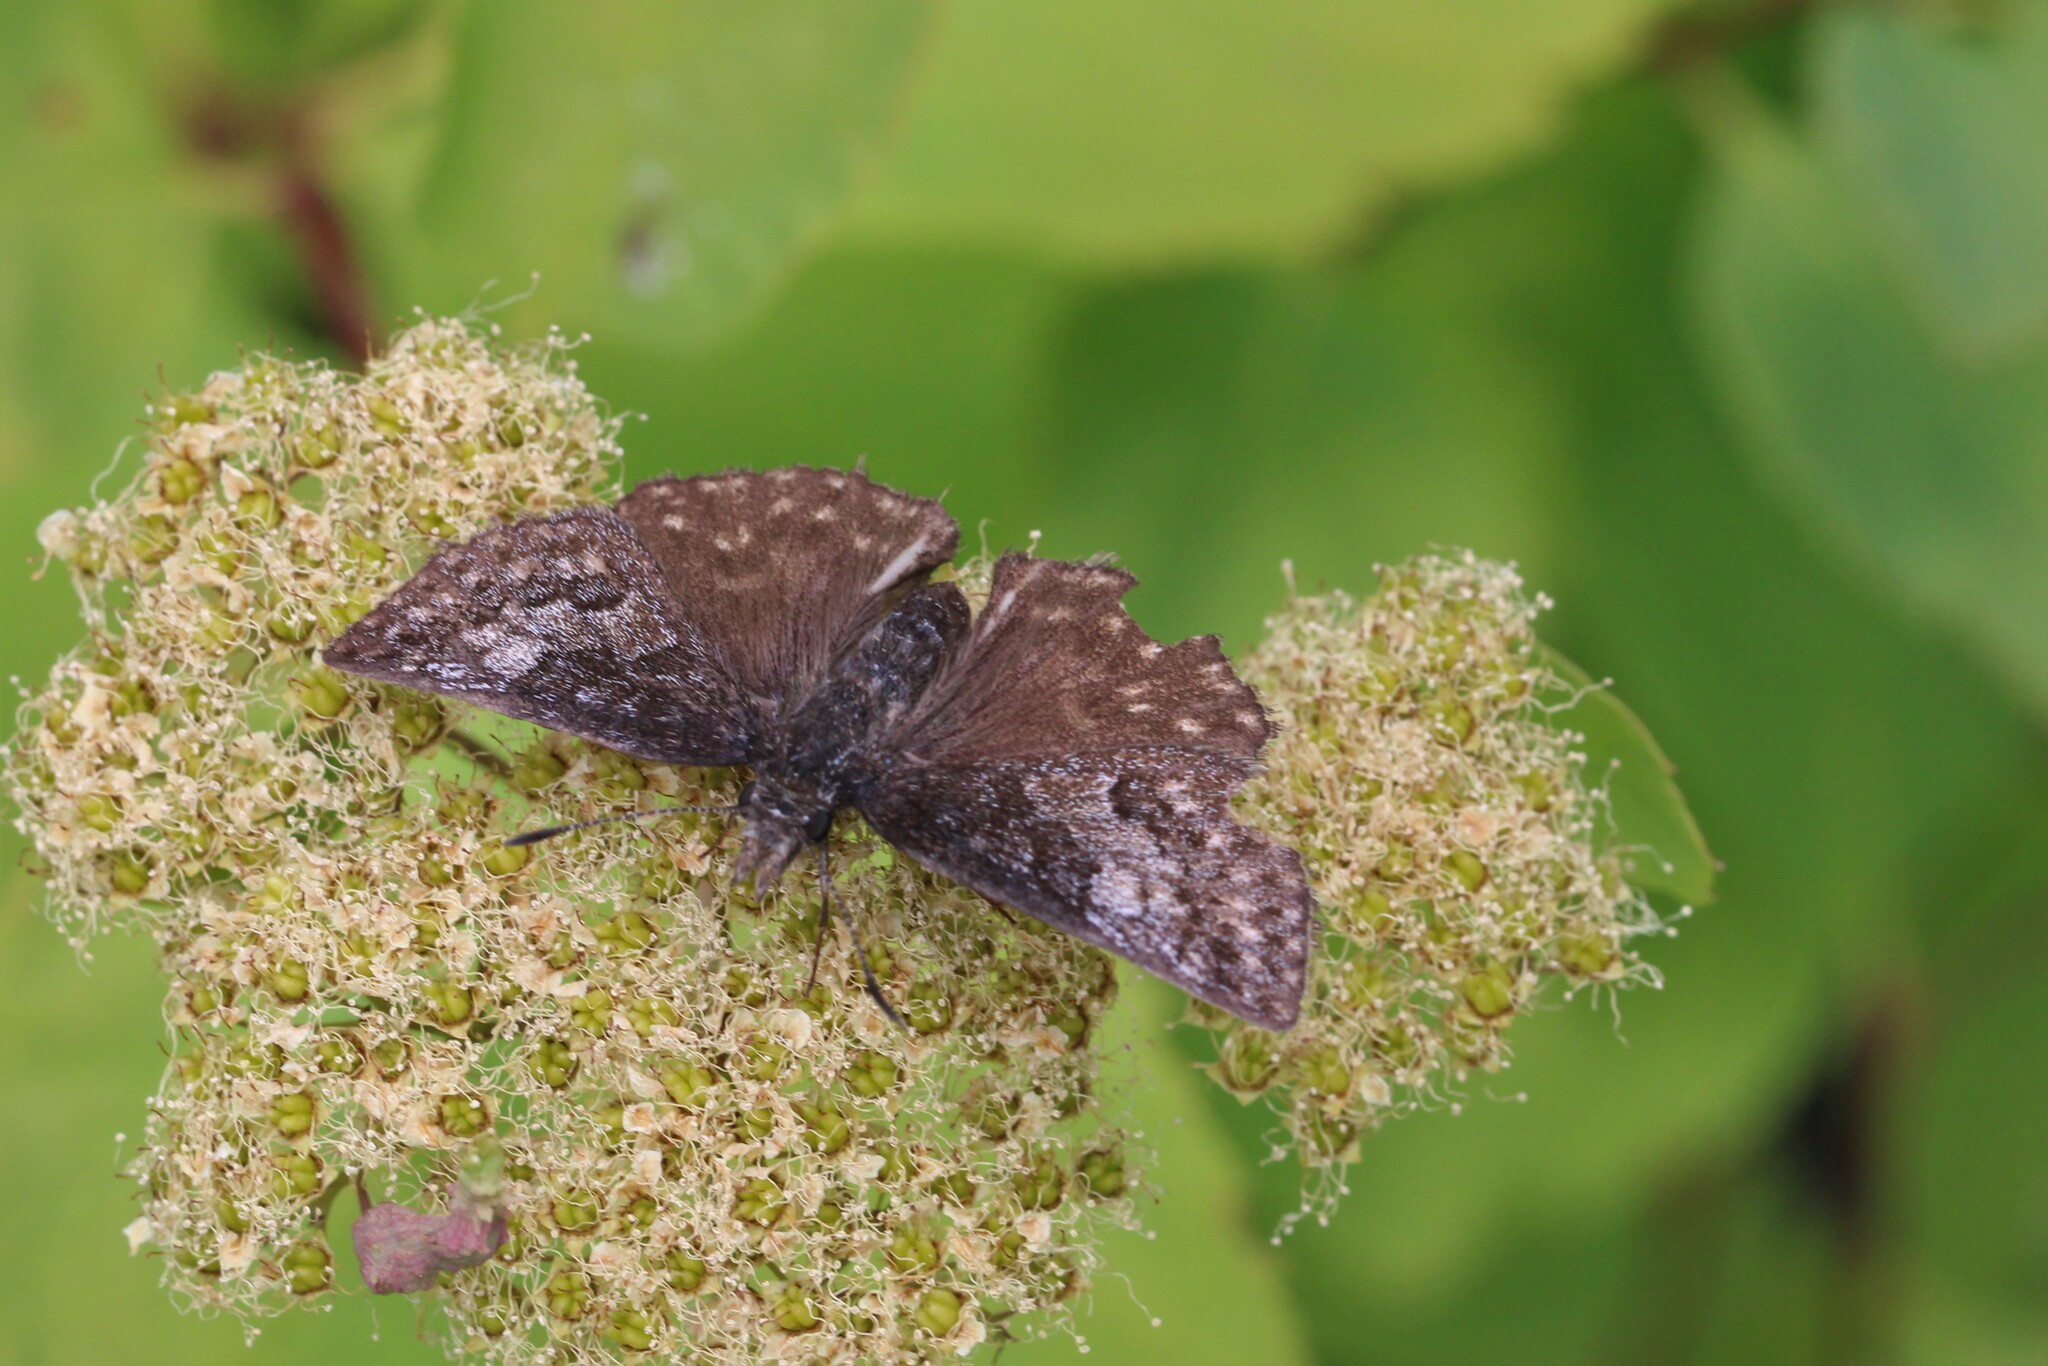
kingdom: Animalia
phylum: Arthropoda
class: Insecta
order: Lepidoptera
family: Hesperiidae
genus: Erynnis
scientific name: Erynnis icelus
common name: Dreamy duskywing
